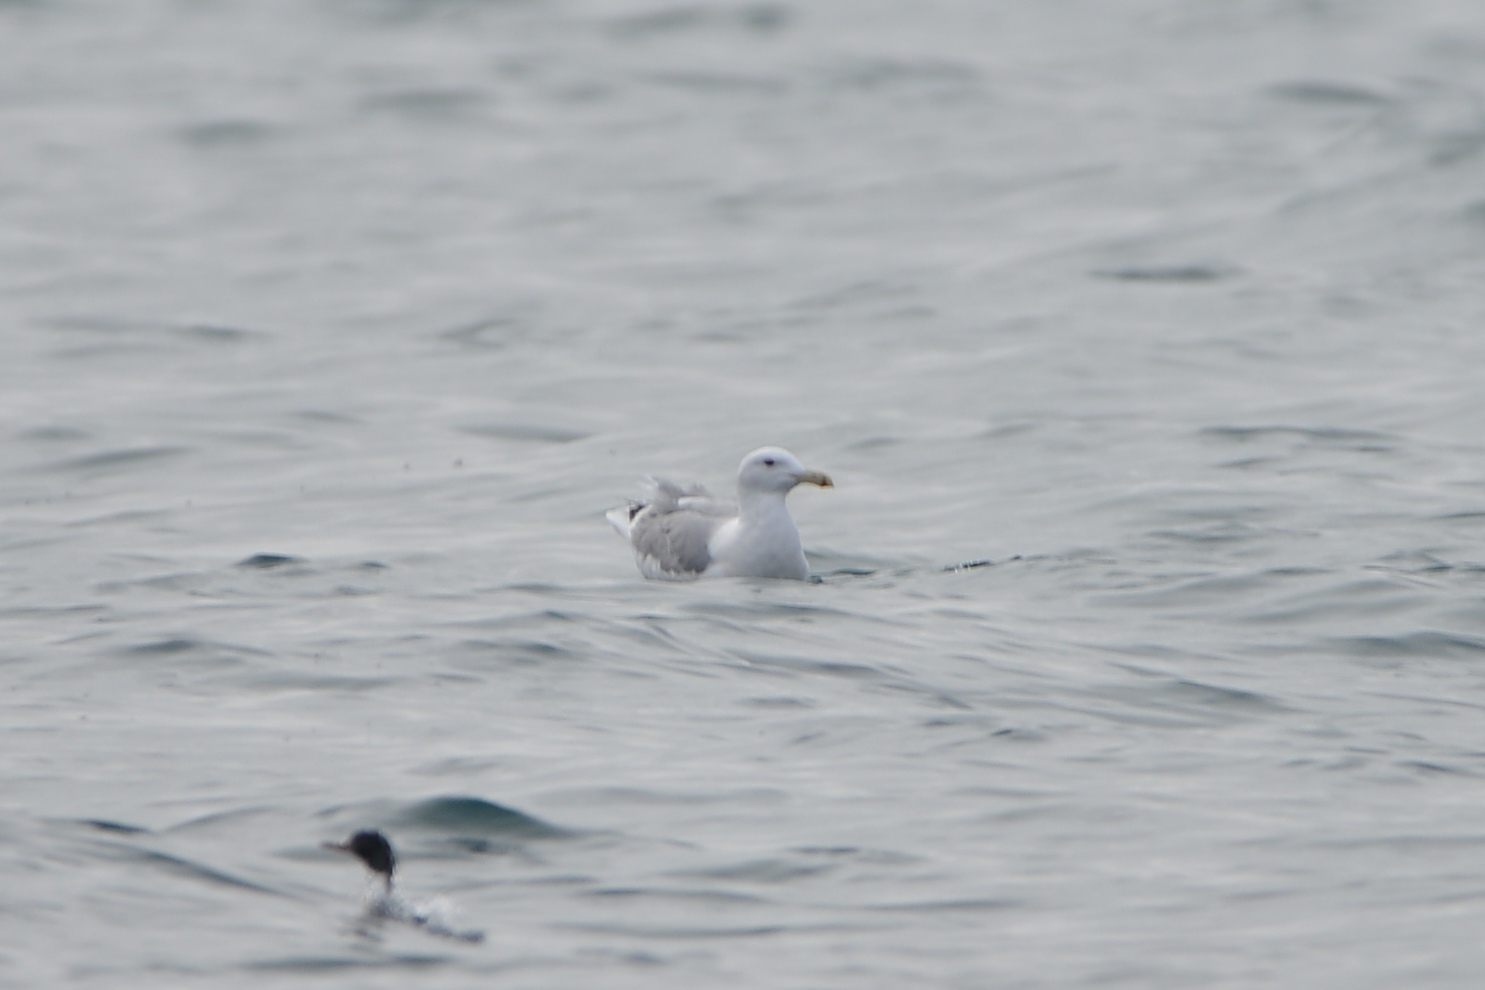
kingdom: Animalia
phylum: Chordata
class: Aves
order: Charadriiformes
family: Laridae
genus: Larus
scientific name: Larus vegae
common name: Vega gull
